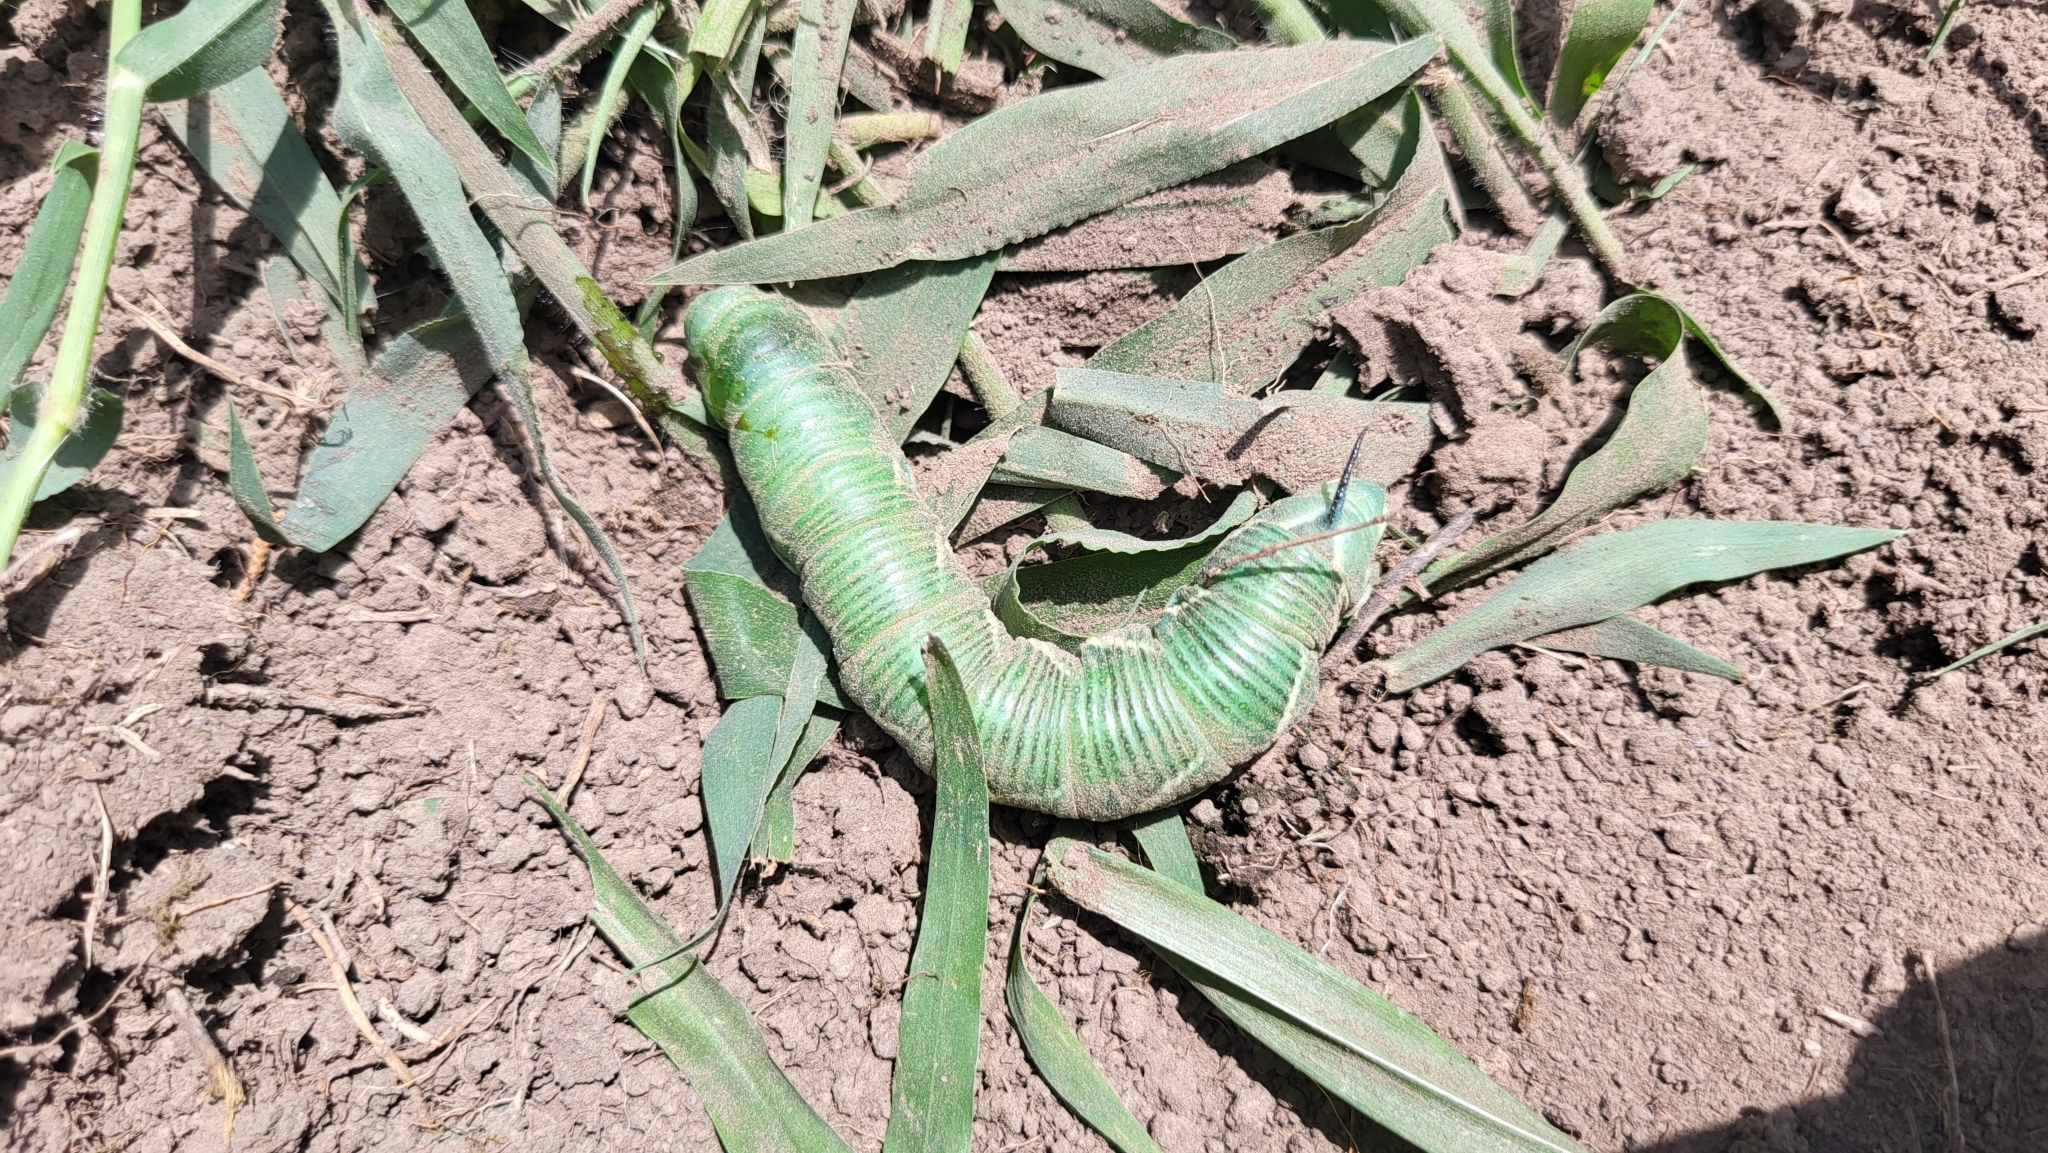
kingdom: Animalia
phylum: Arthropoda
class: Insecta
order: Lepidoptera
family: Sphingidae
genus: Manduca
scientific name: Manduca quinquemaculatus
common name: Five-spotted hawk-moth
